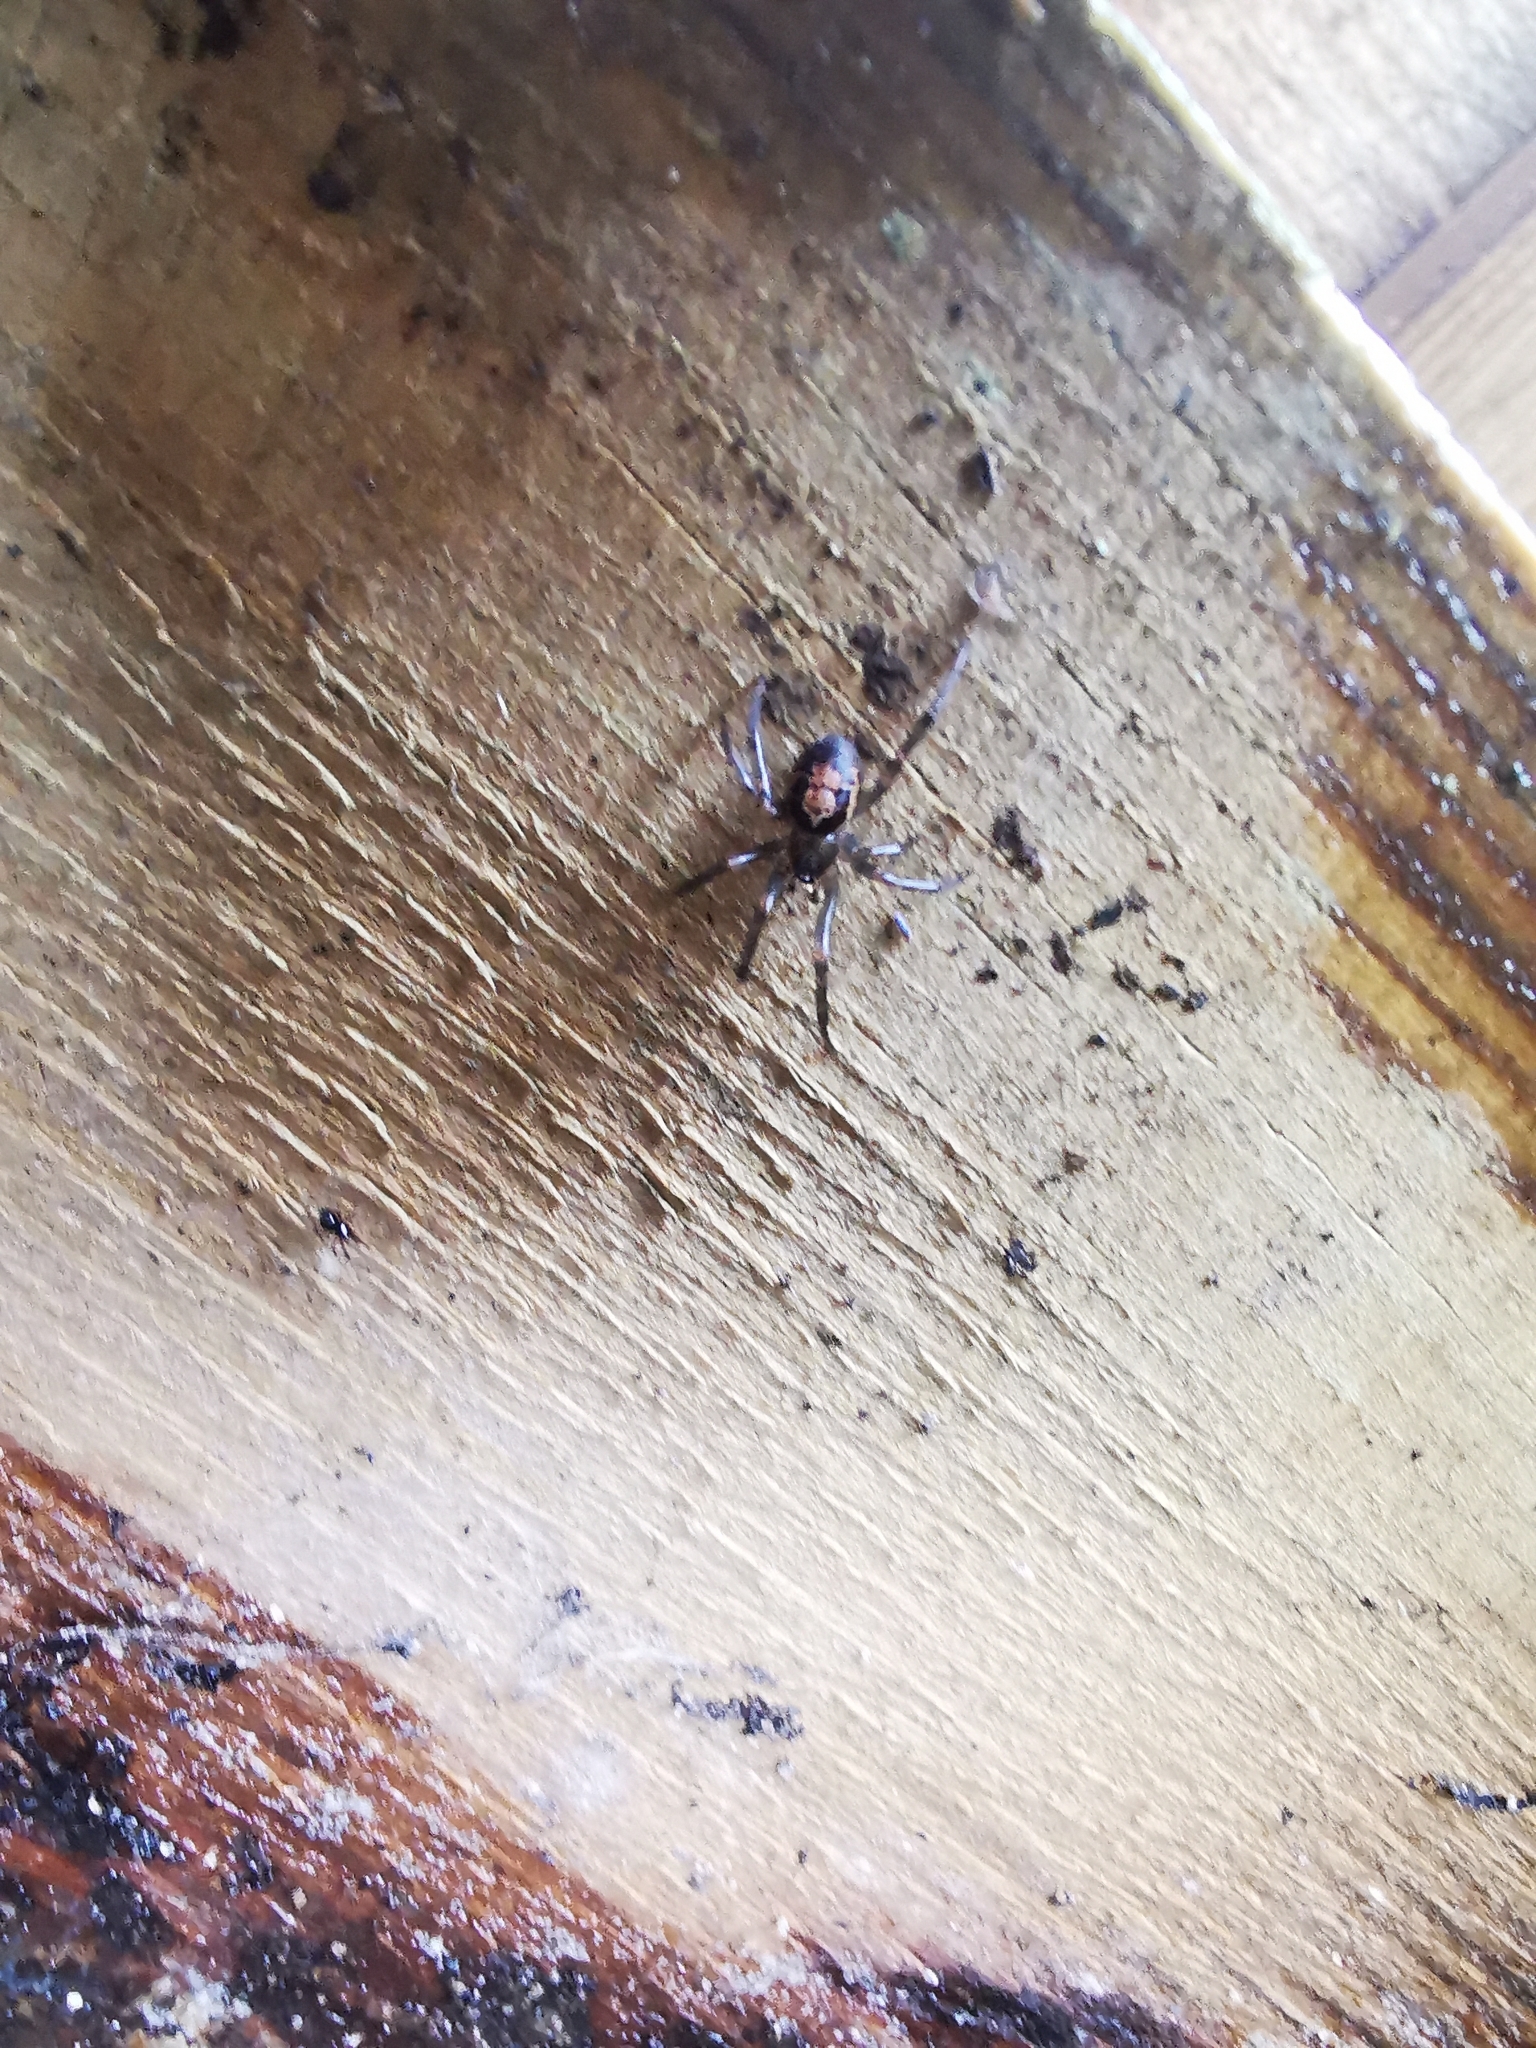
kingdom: Animalia
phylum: Arthropoda
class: Arachnida
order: Araneae
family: Theridiidae
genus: Steatoda
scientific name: Steatoda nobilis
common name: Cobweb weaver
